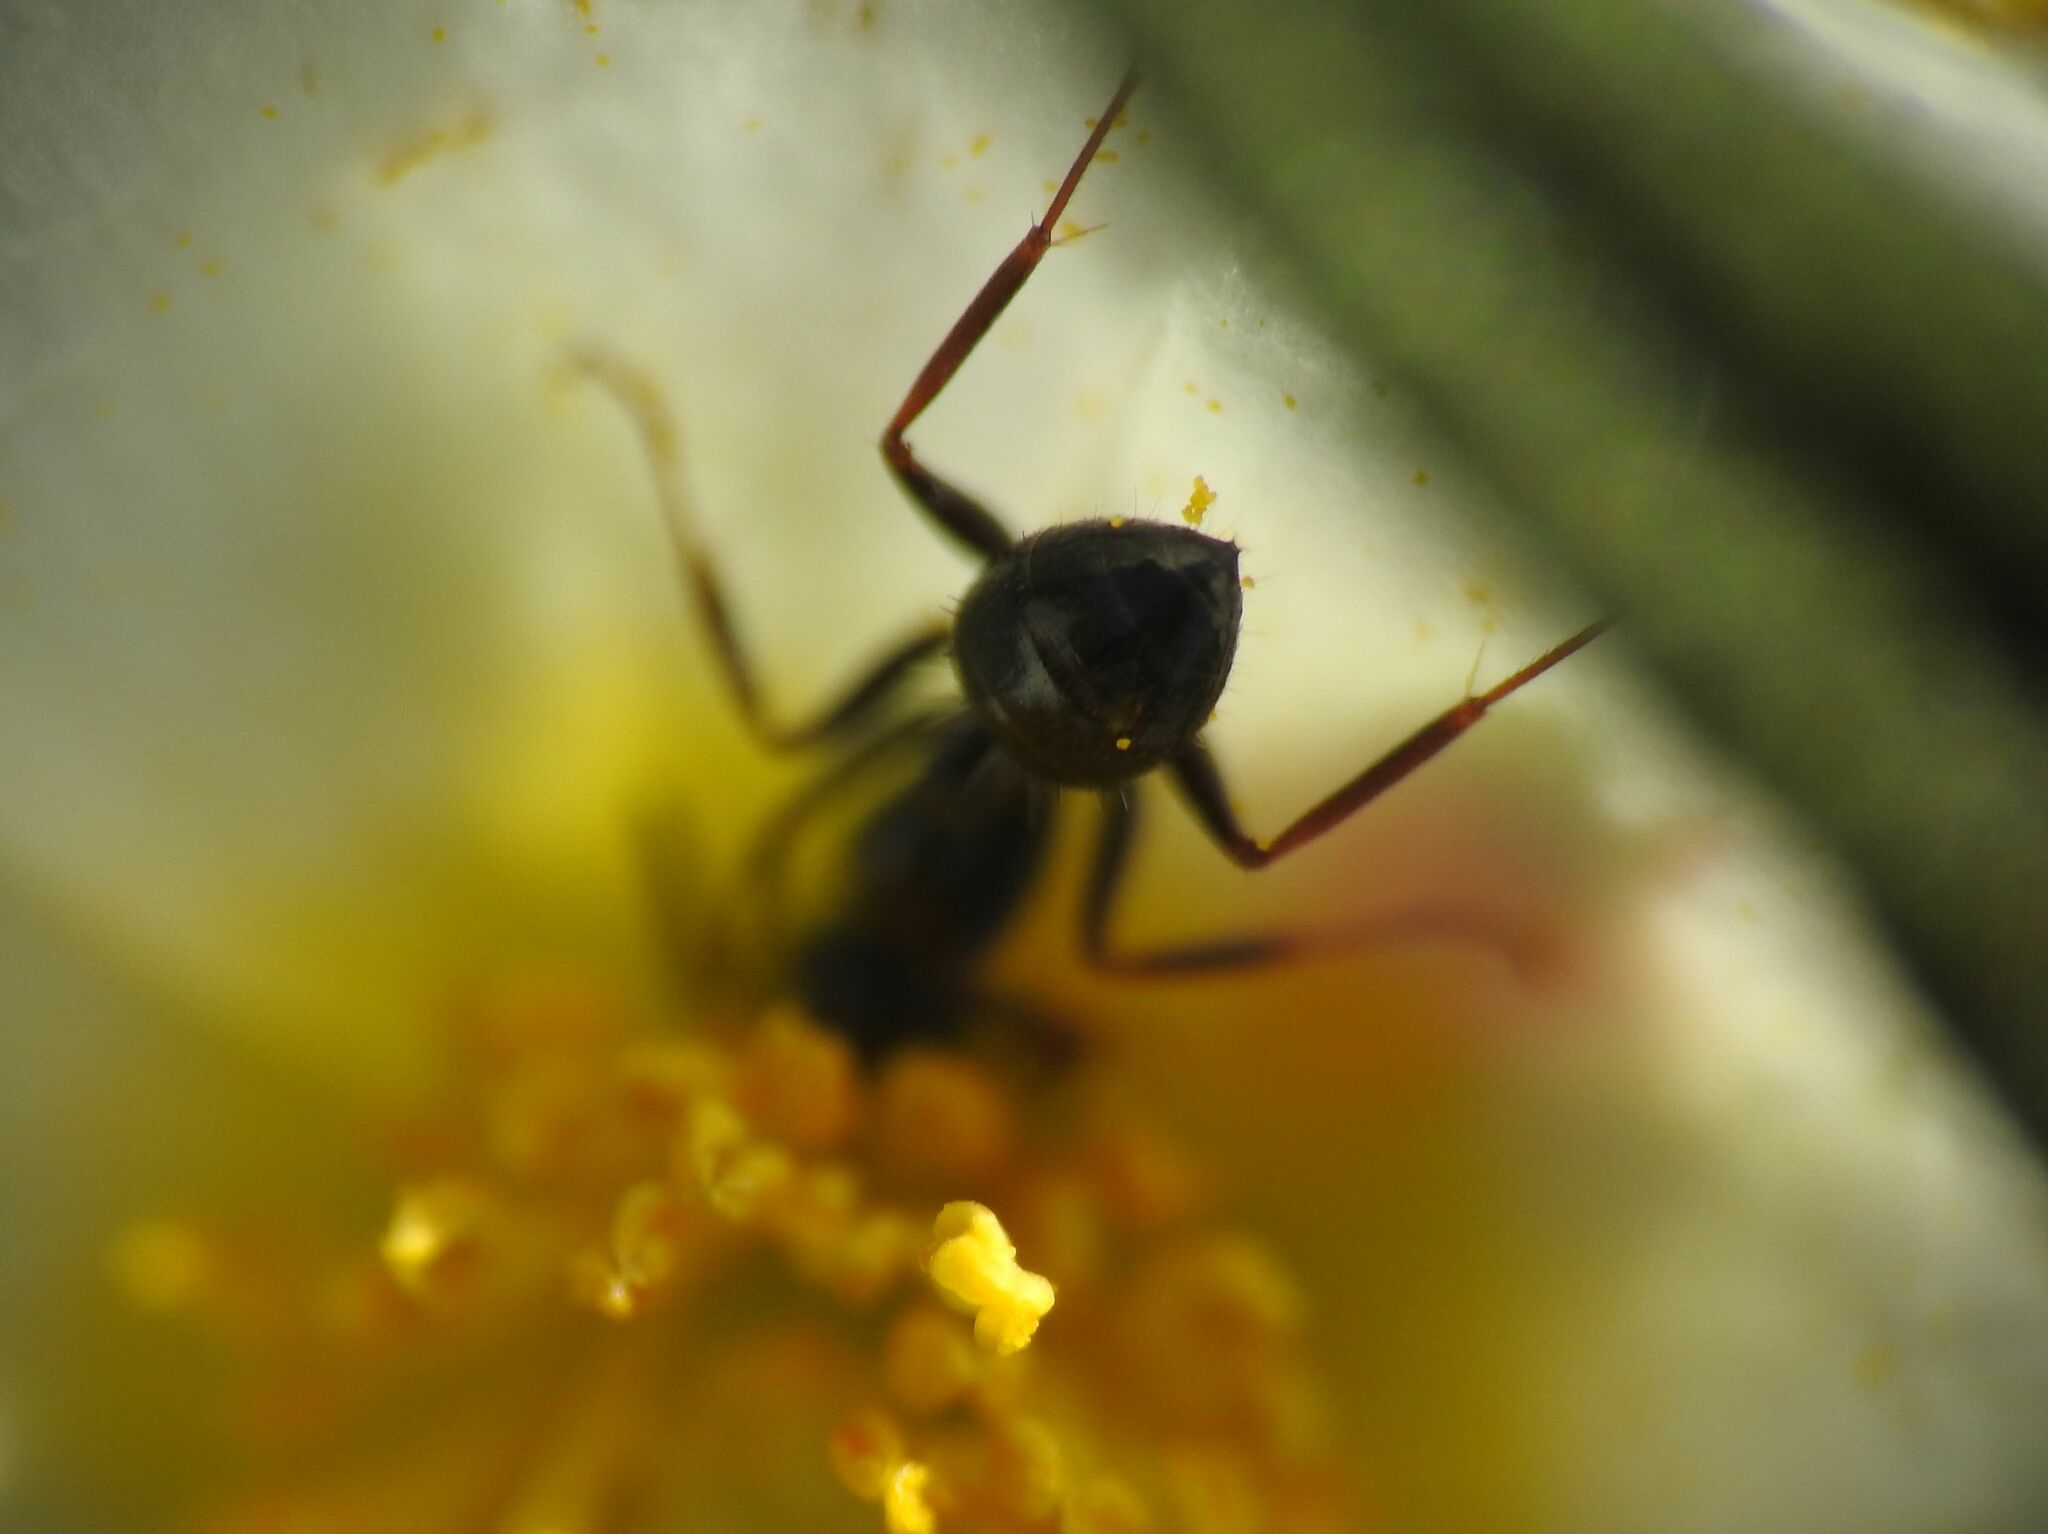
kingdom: Animalia
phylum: Arthropoda
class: Insecta
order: Hymenoptera
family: Formicidae
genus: Camponotus
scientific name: Camponotus piceus
